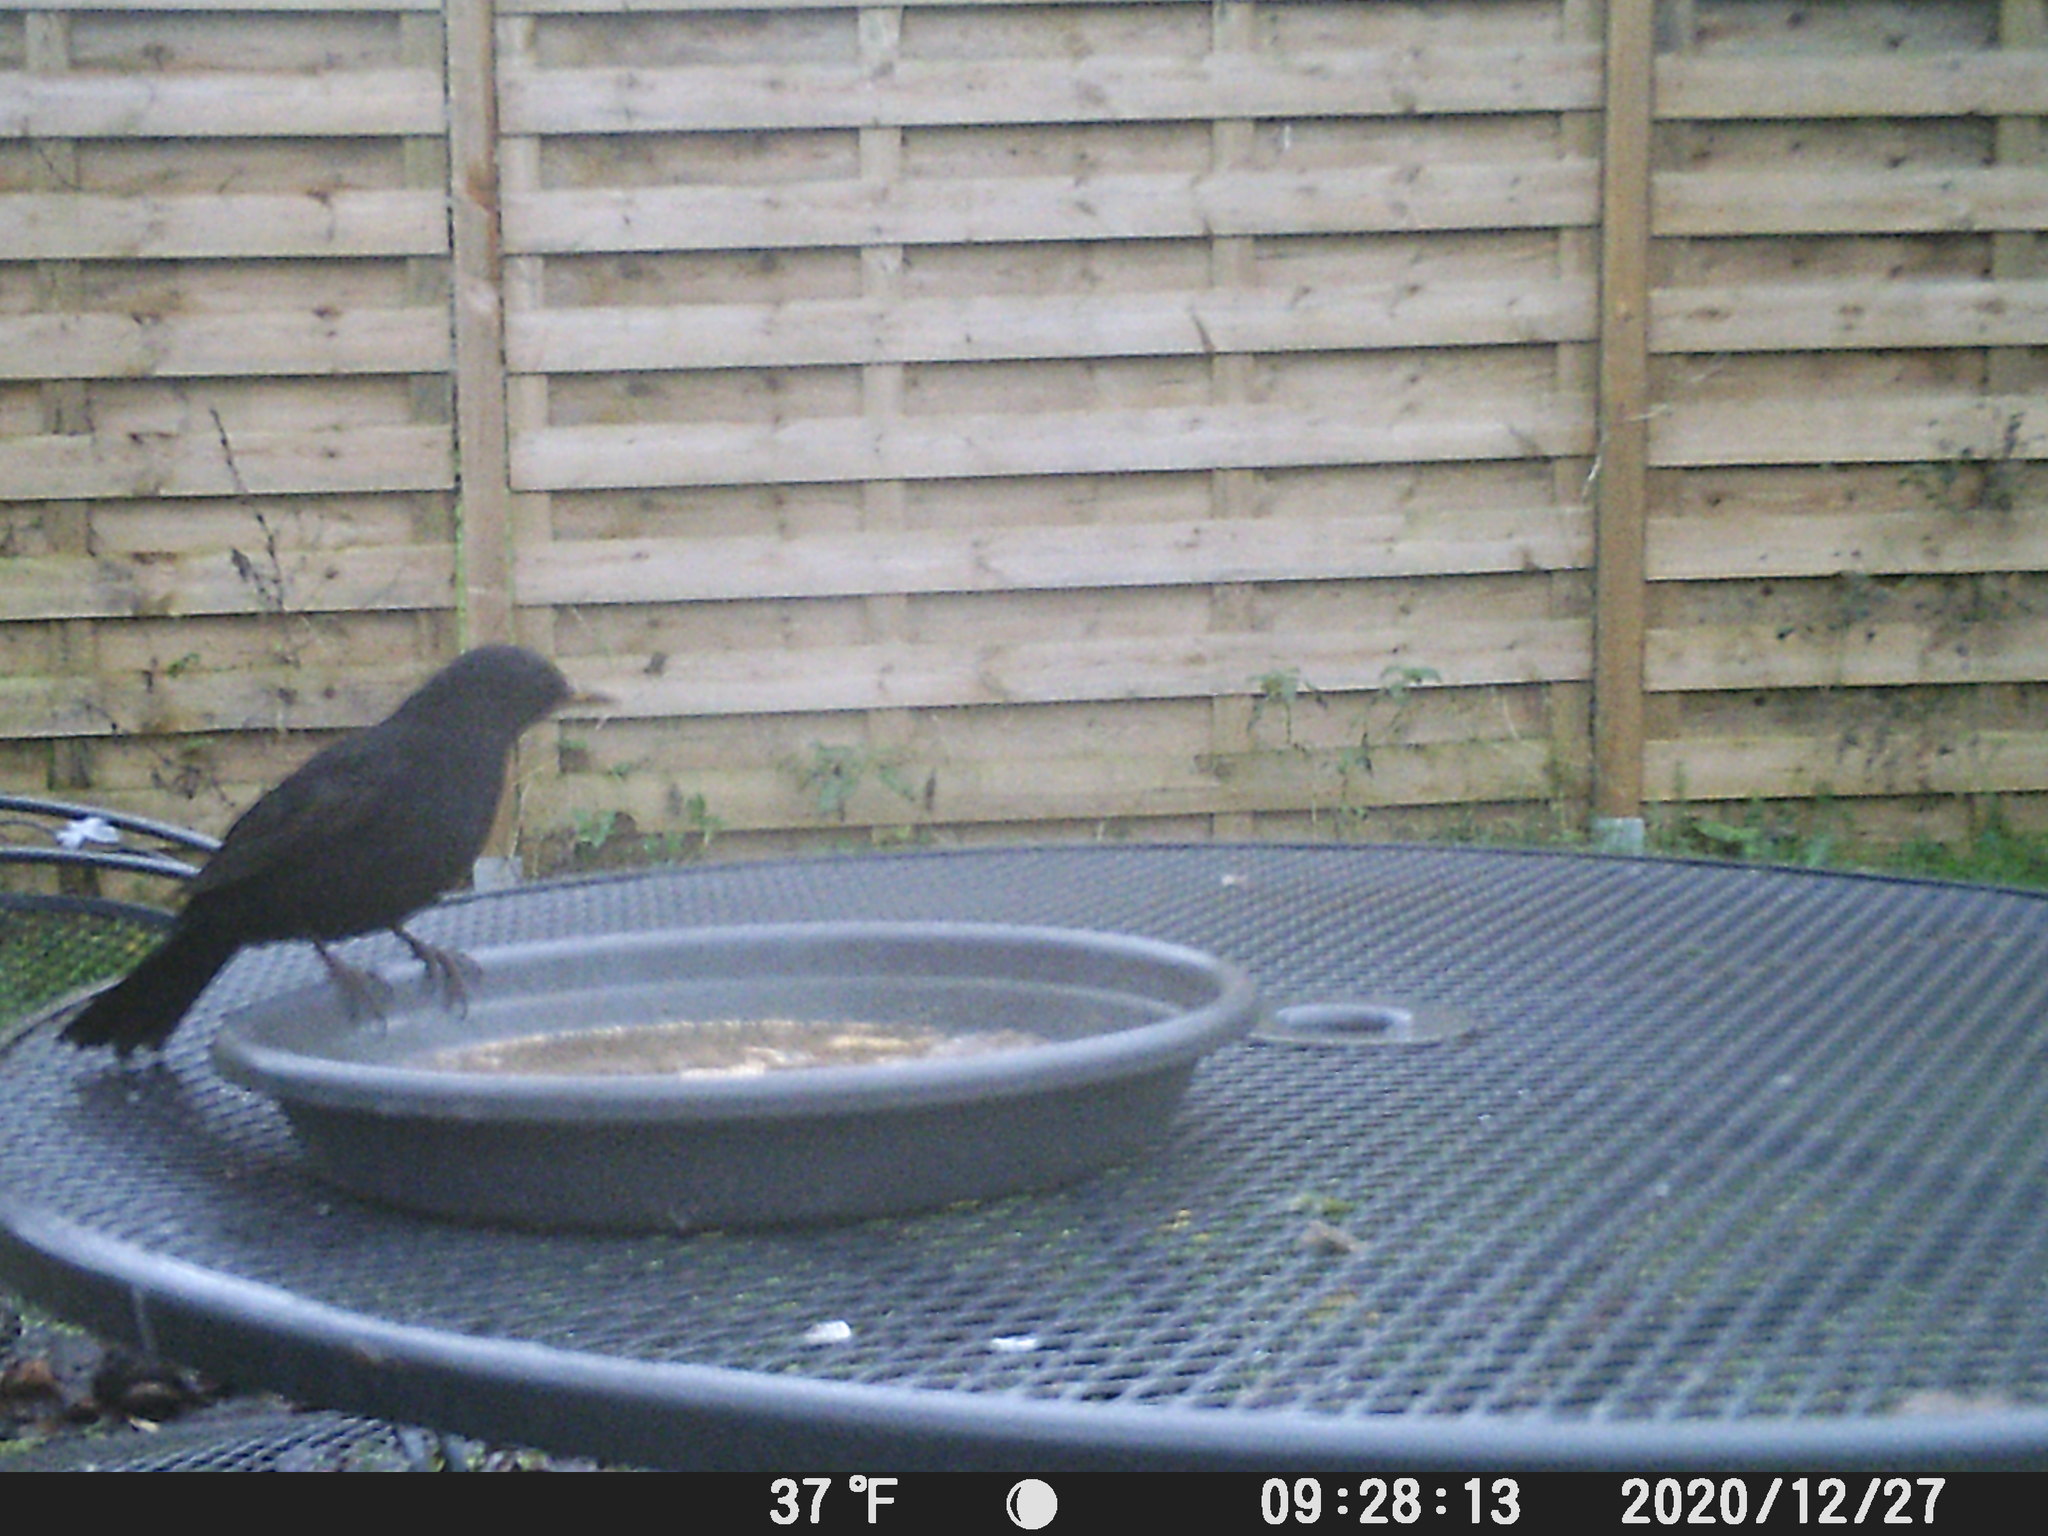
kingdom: Animalia
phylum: Chordata
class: Aves
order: Passeriformes
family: Turdidae
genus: Turdus
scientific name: Turdus merula
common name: Common blackbird
